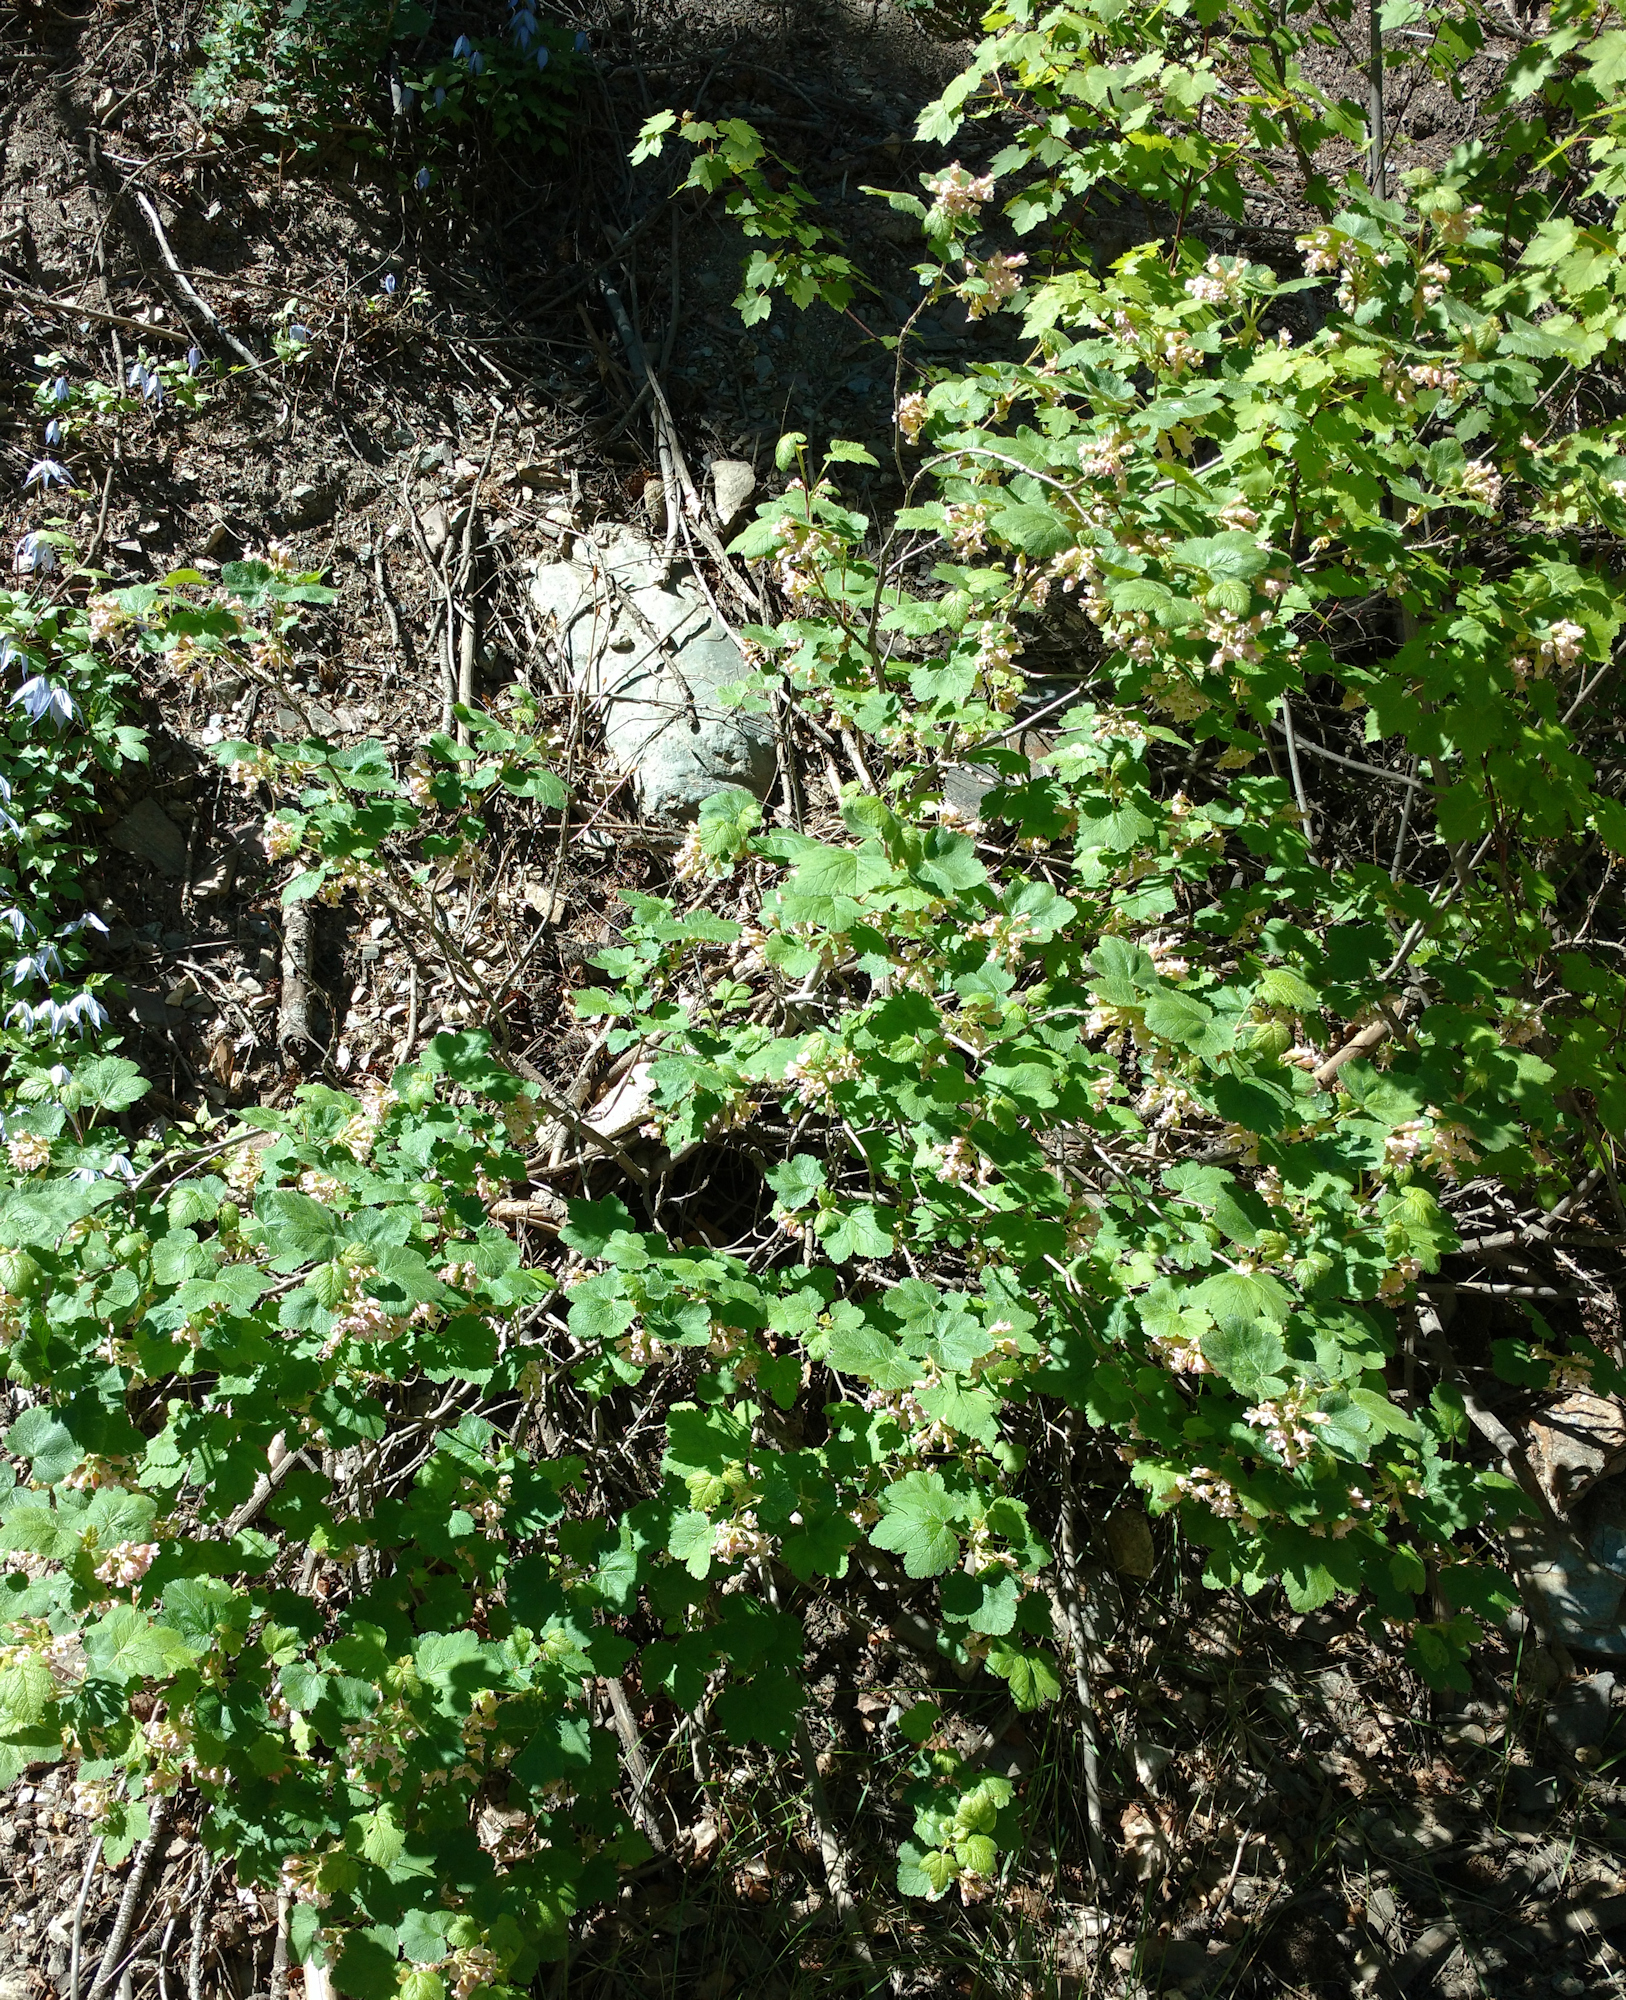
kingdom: Plantae
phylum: Tracheophyta
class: Magnoliopsida
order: Saxifragales
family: Grossulariaceae
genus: Ribes
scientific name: Ribes viscosissimum
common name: Sticky currant
